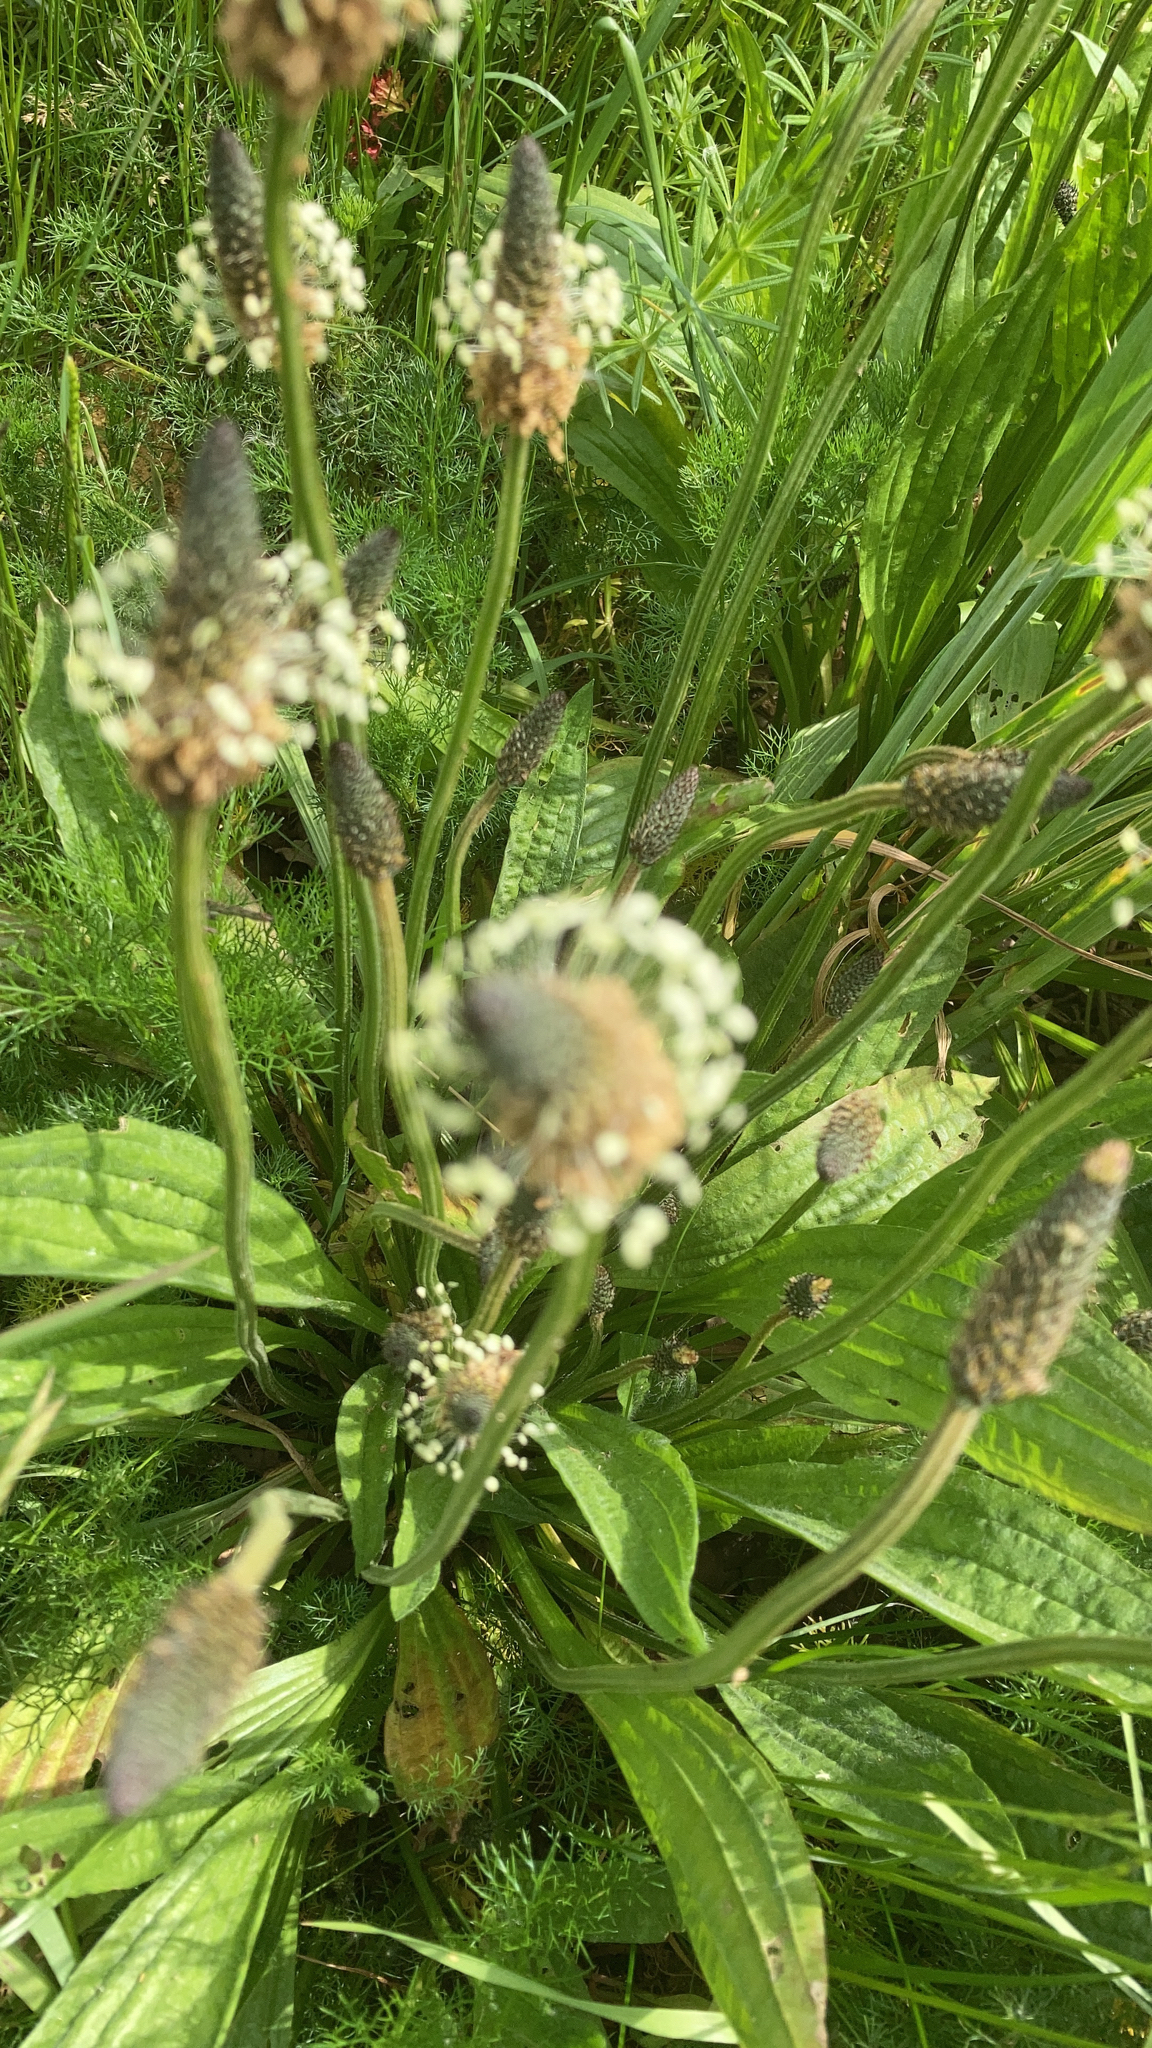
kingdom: Plantae
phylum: Tracheophyta
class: Magnoliopsida
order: Lamiales
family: Plantaginaceae
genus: Plantago
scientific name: Plantago lanceolata
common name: Ribwort plantain
